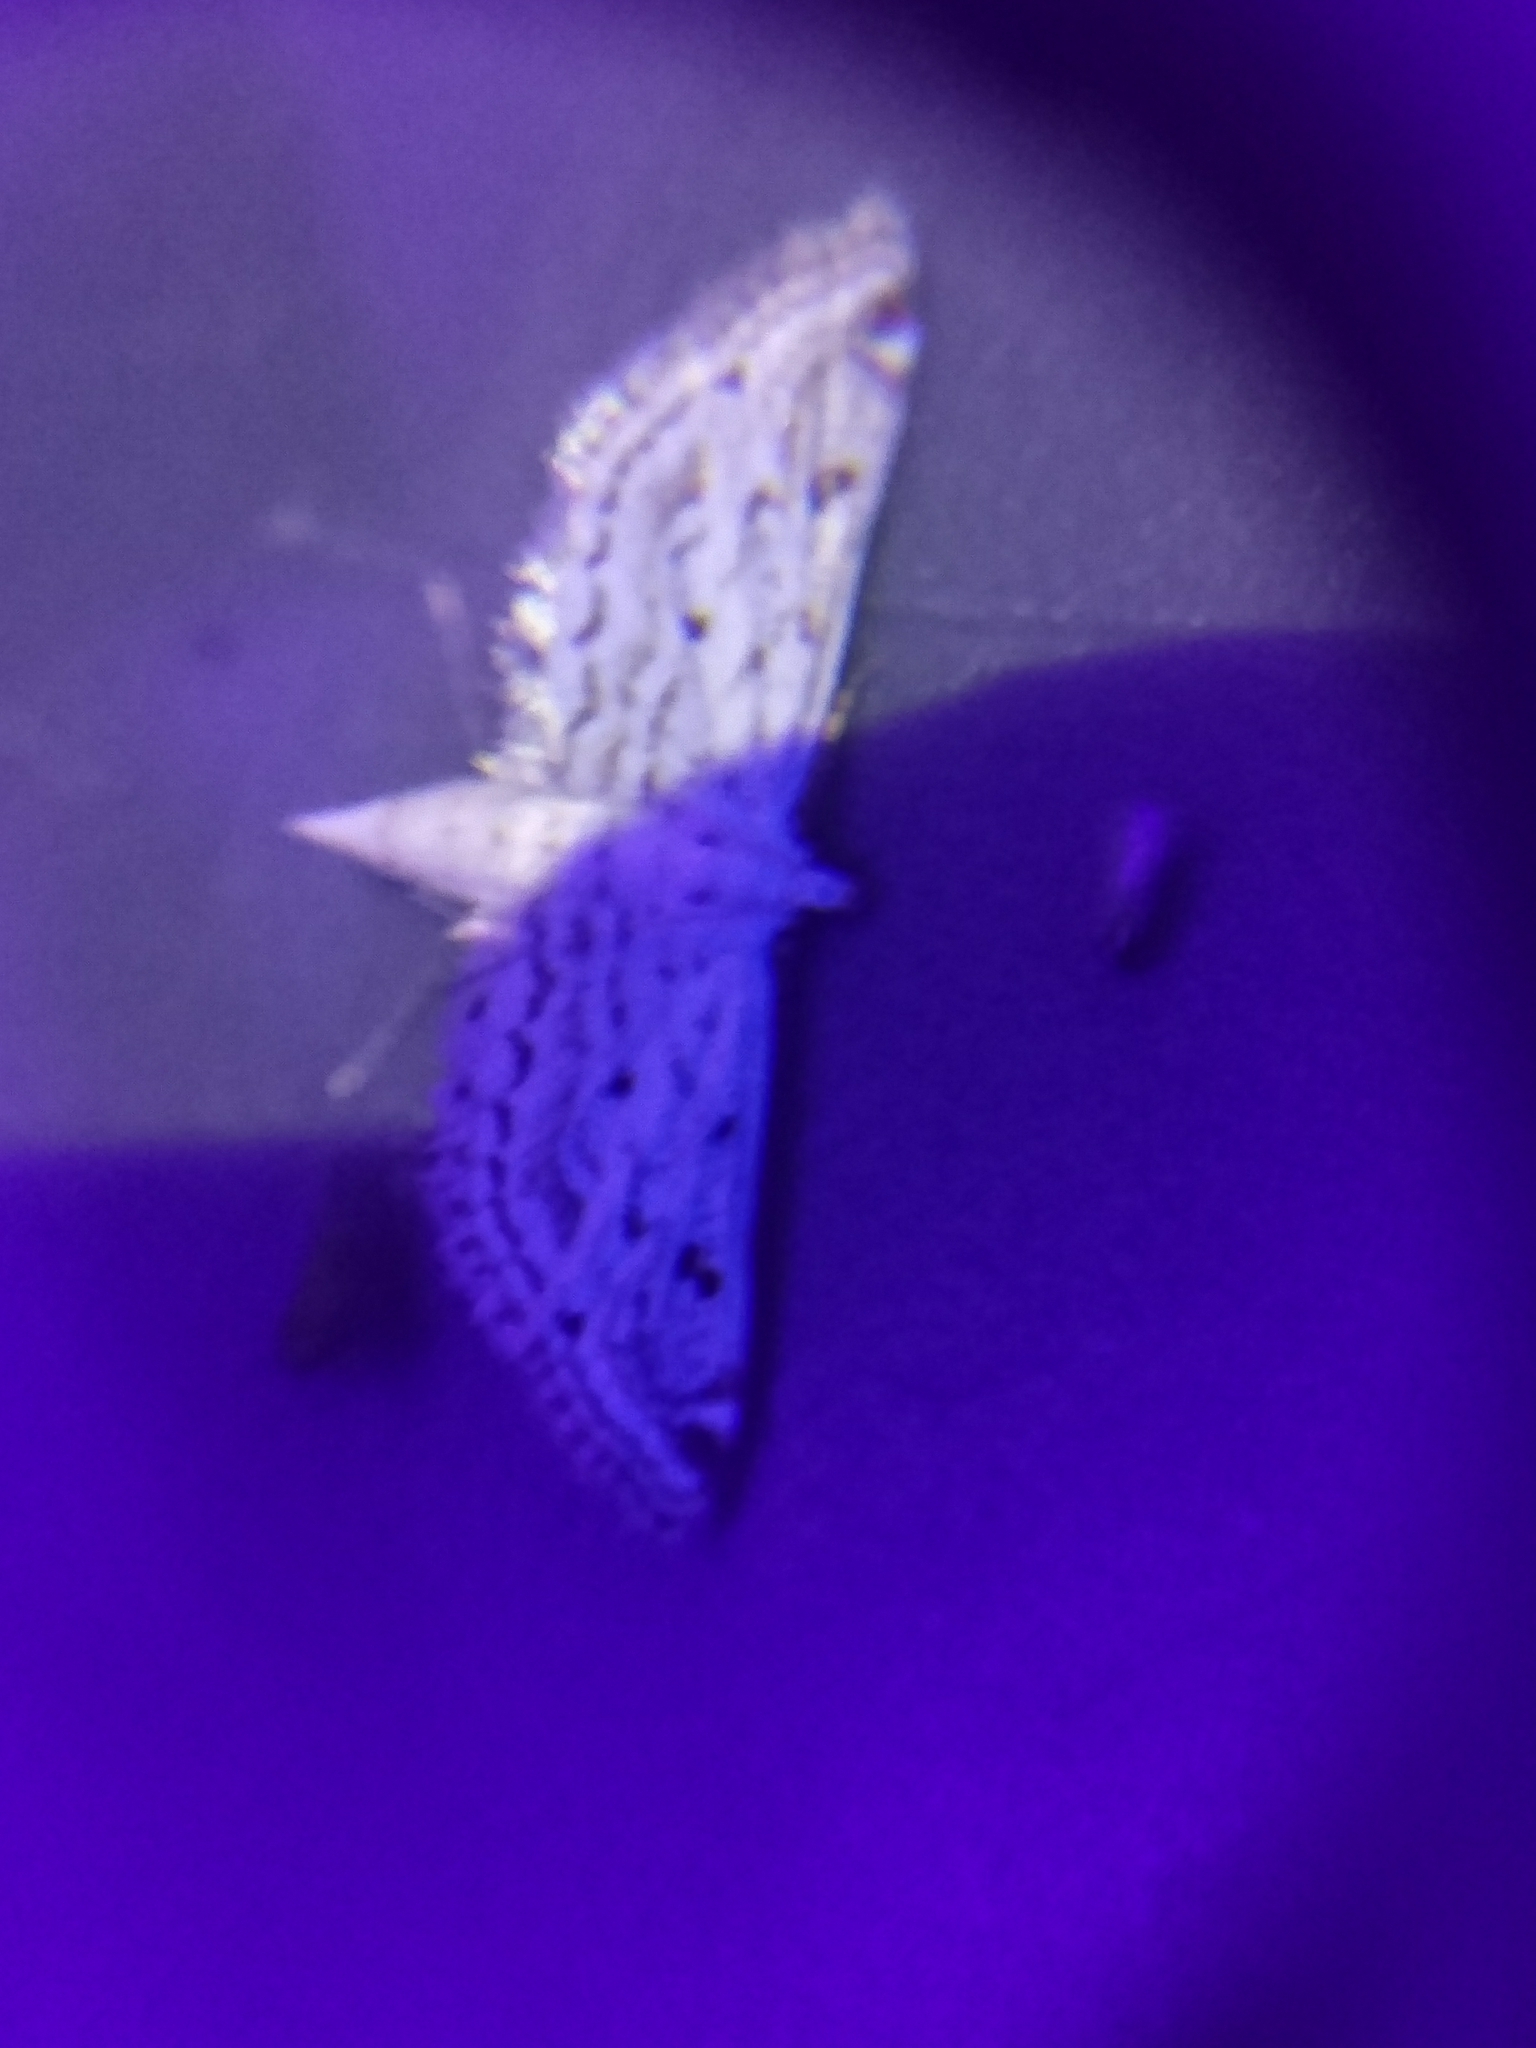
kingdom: Animalia
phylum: Arthropoda
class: Insecta
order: Lepidoptera
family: Crambidae
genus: Parapoynx
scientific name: Parapoynx allionealis
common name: Bladderwort casemaker
